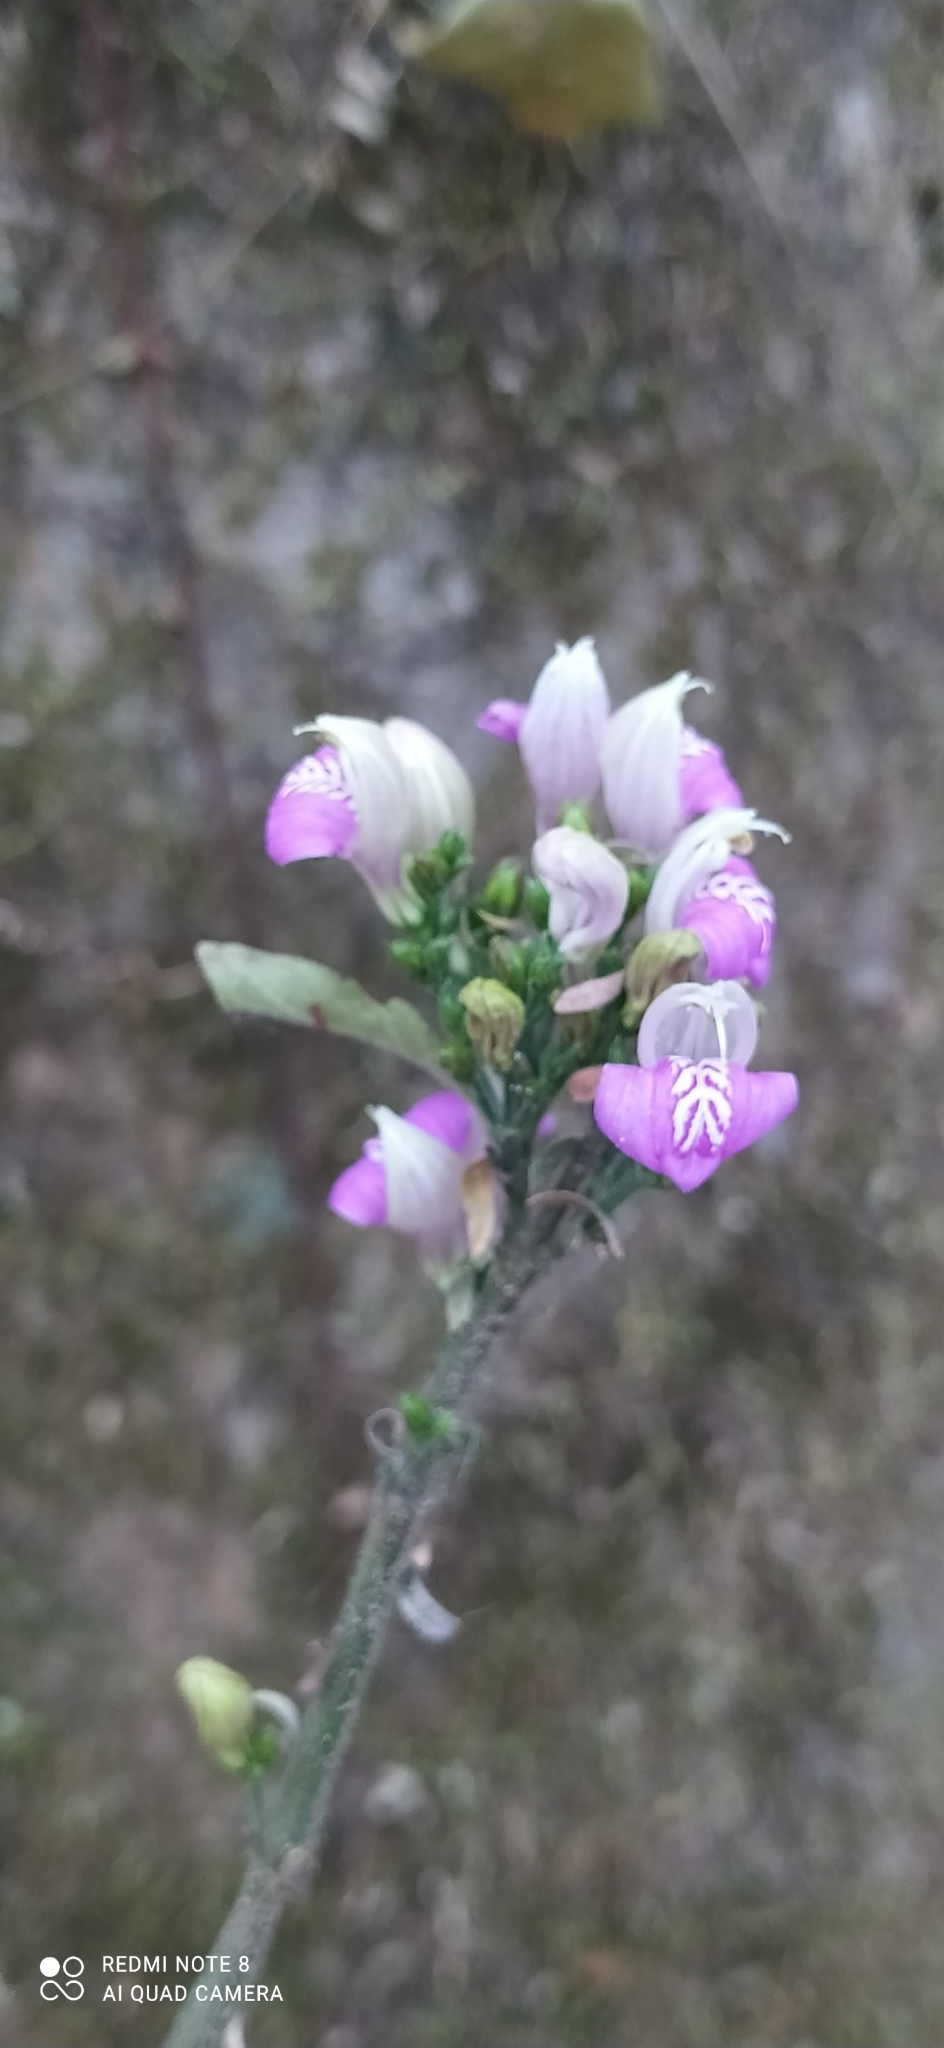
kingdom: Plantae
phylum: Tracheophyta
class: Magnoliopsida
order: Lamiales
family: Acanthaceae
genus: Justicia
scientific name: Justicia kuntzei
